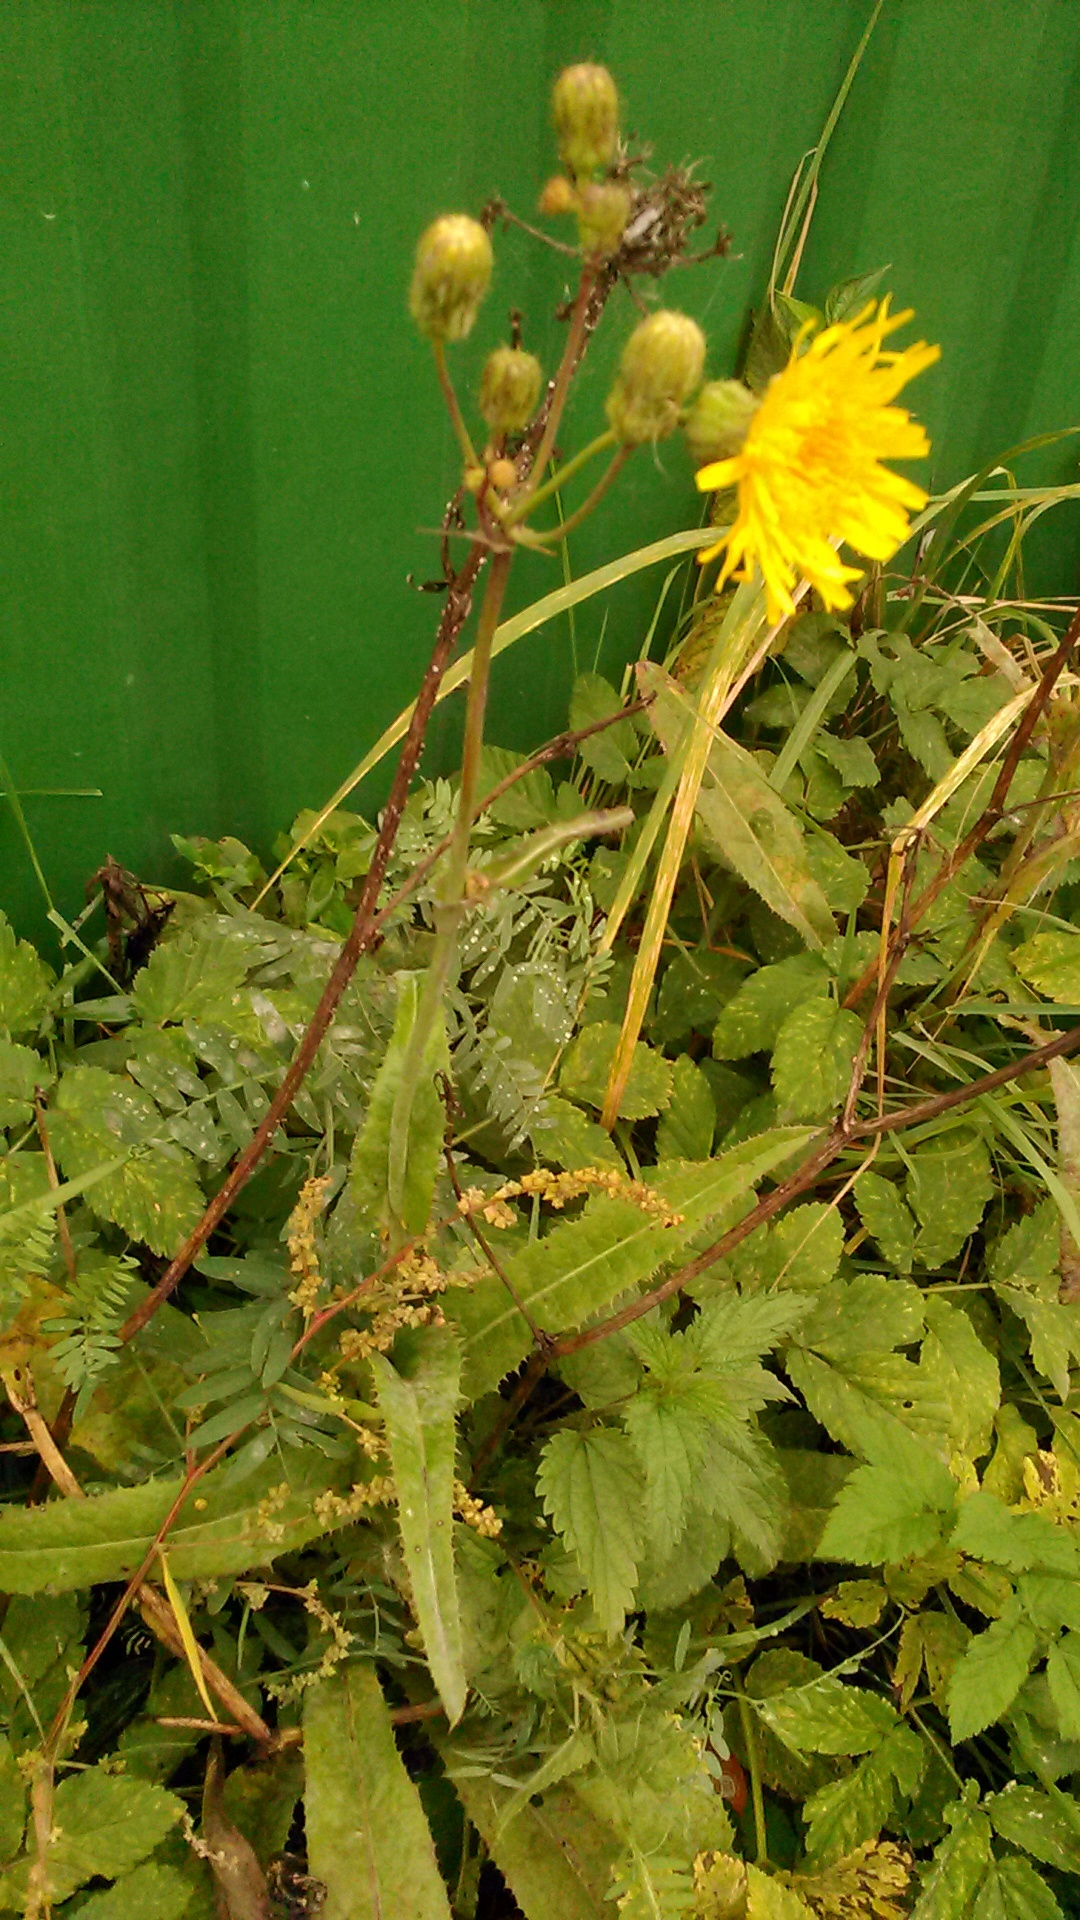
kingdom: Plantae
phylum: Tracheophyta
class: Magnoliopsida
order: Asterales
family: Asteraceae
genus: Sonchus
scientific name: Sonchus arvensis
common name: Perennial sow-thistle
